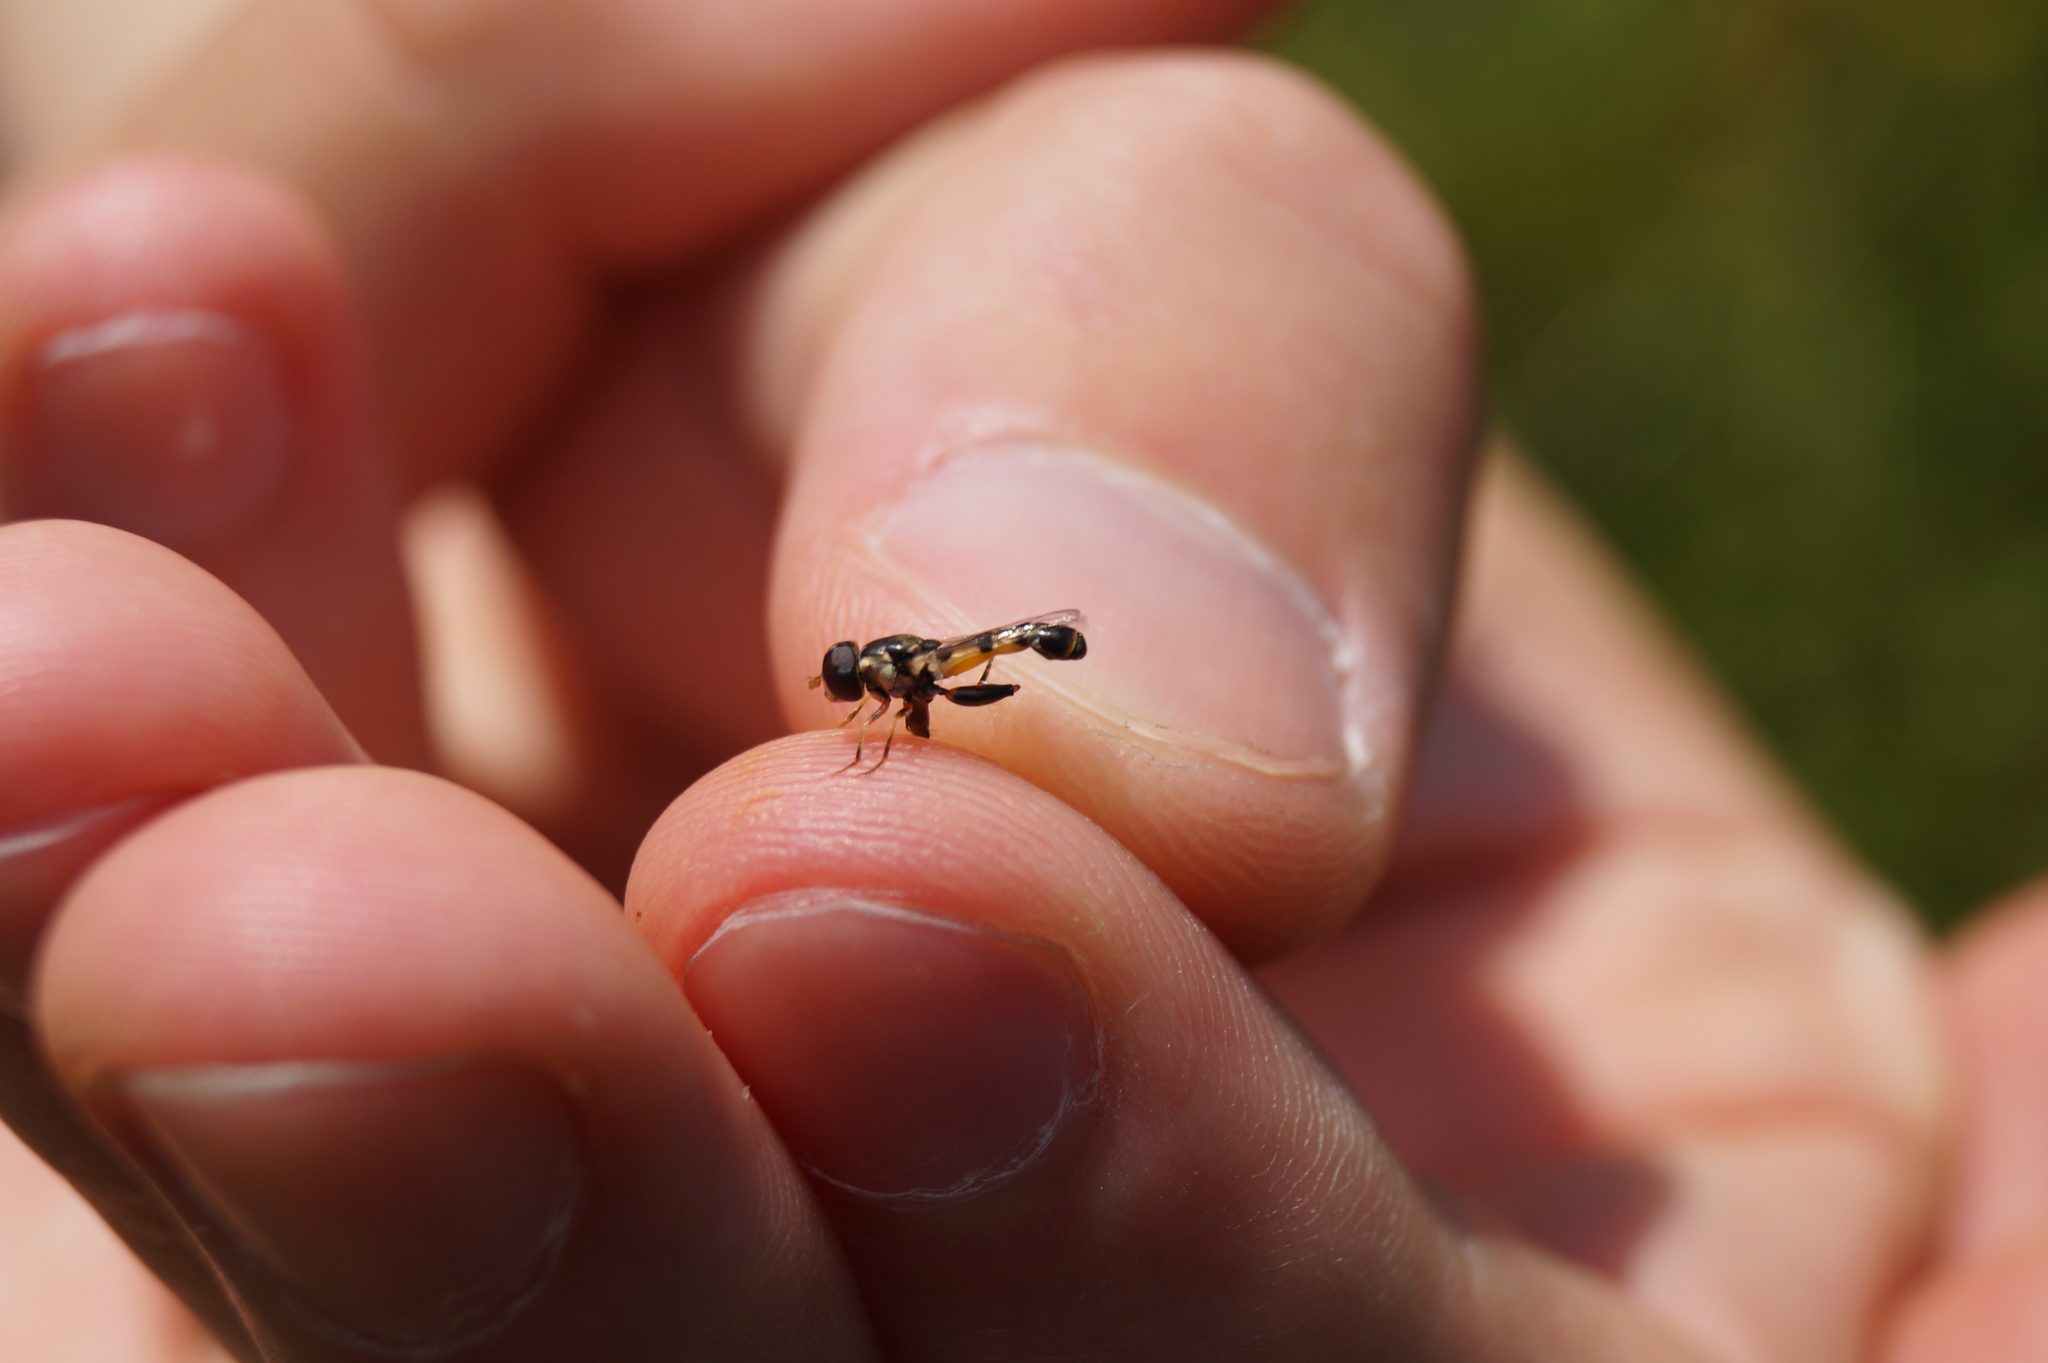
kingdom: Animalia
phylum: Arthropoda
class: Insecta
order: Diptera
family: Syrphidae
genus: Syritta
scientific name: Syritta pipiens
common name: Hover fly
